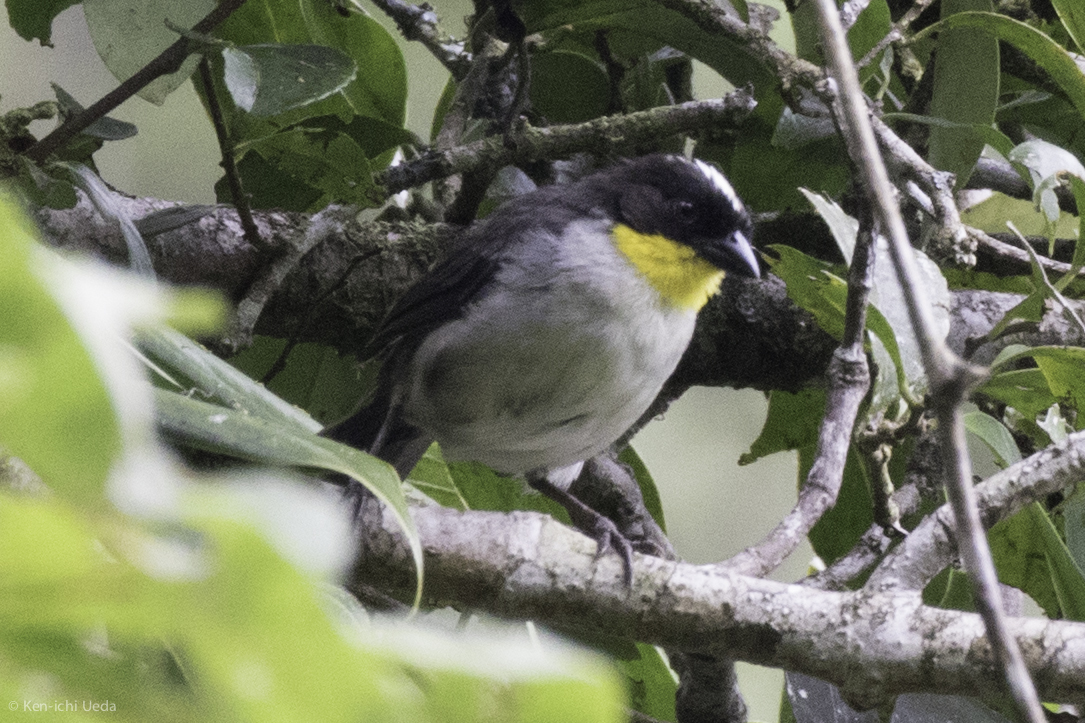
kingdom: Animalia
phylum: Chordata
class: Aves
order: Passeriformes
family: Passerellidae
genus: Atlapetes
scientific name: Atlapetes albinucha
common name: White-naped brush-finch
